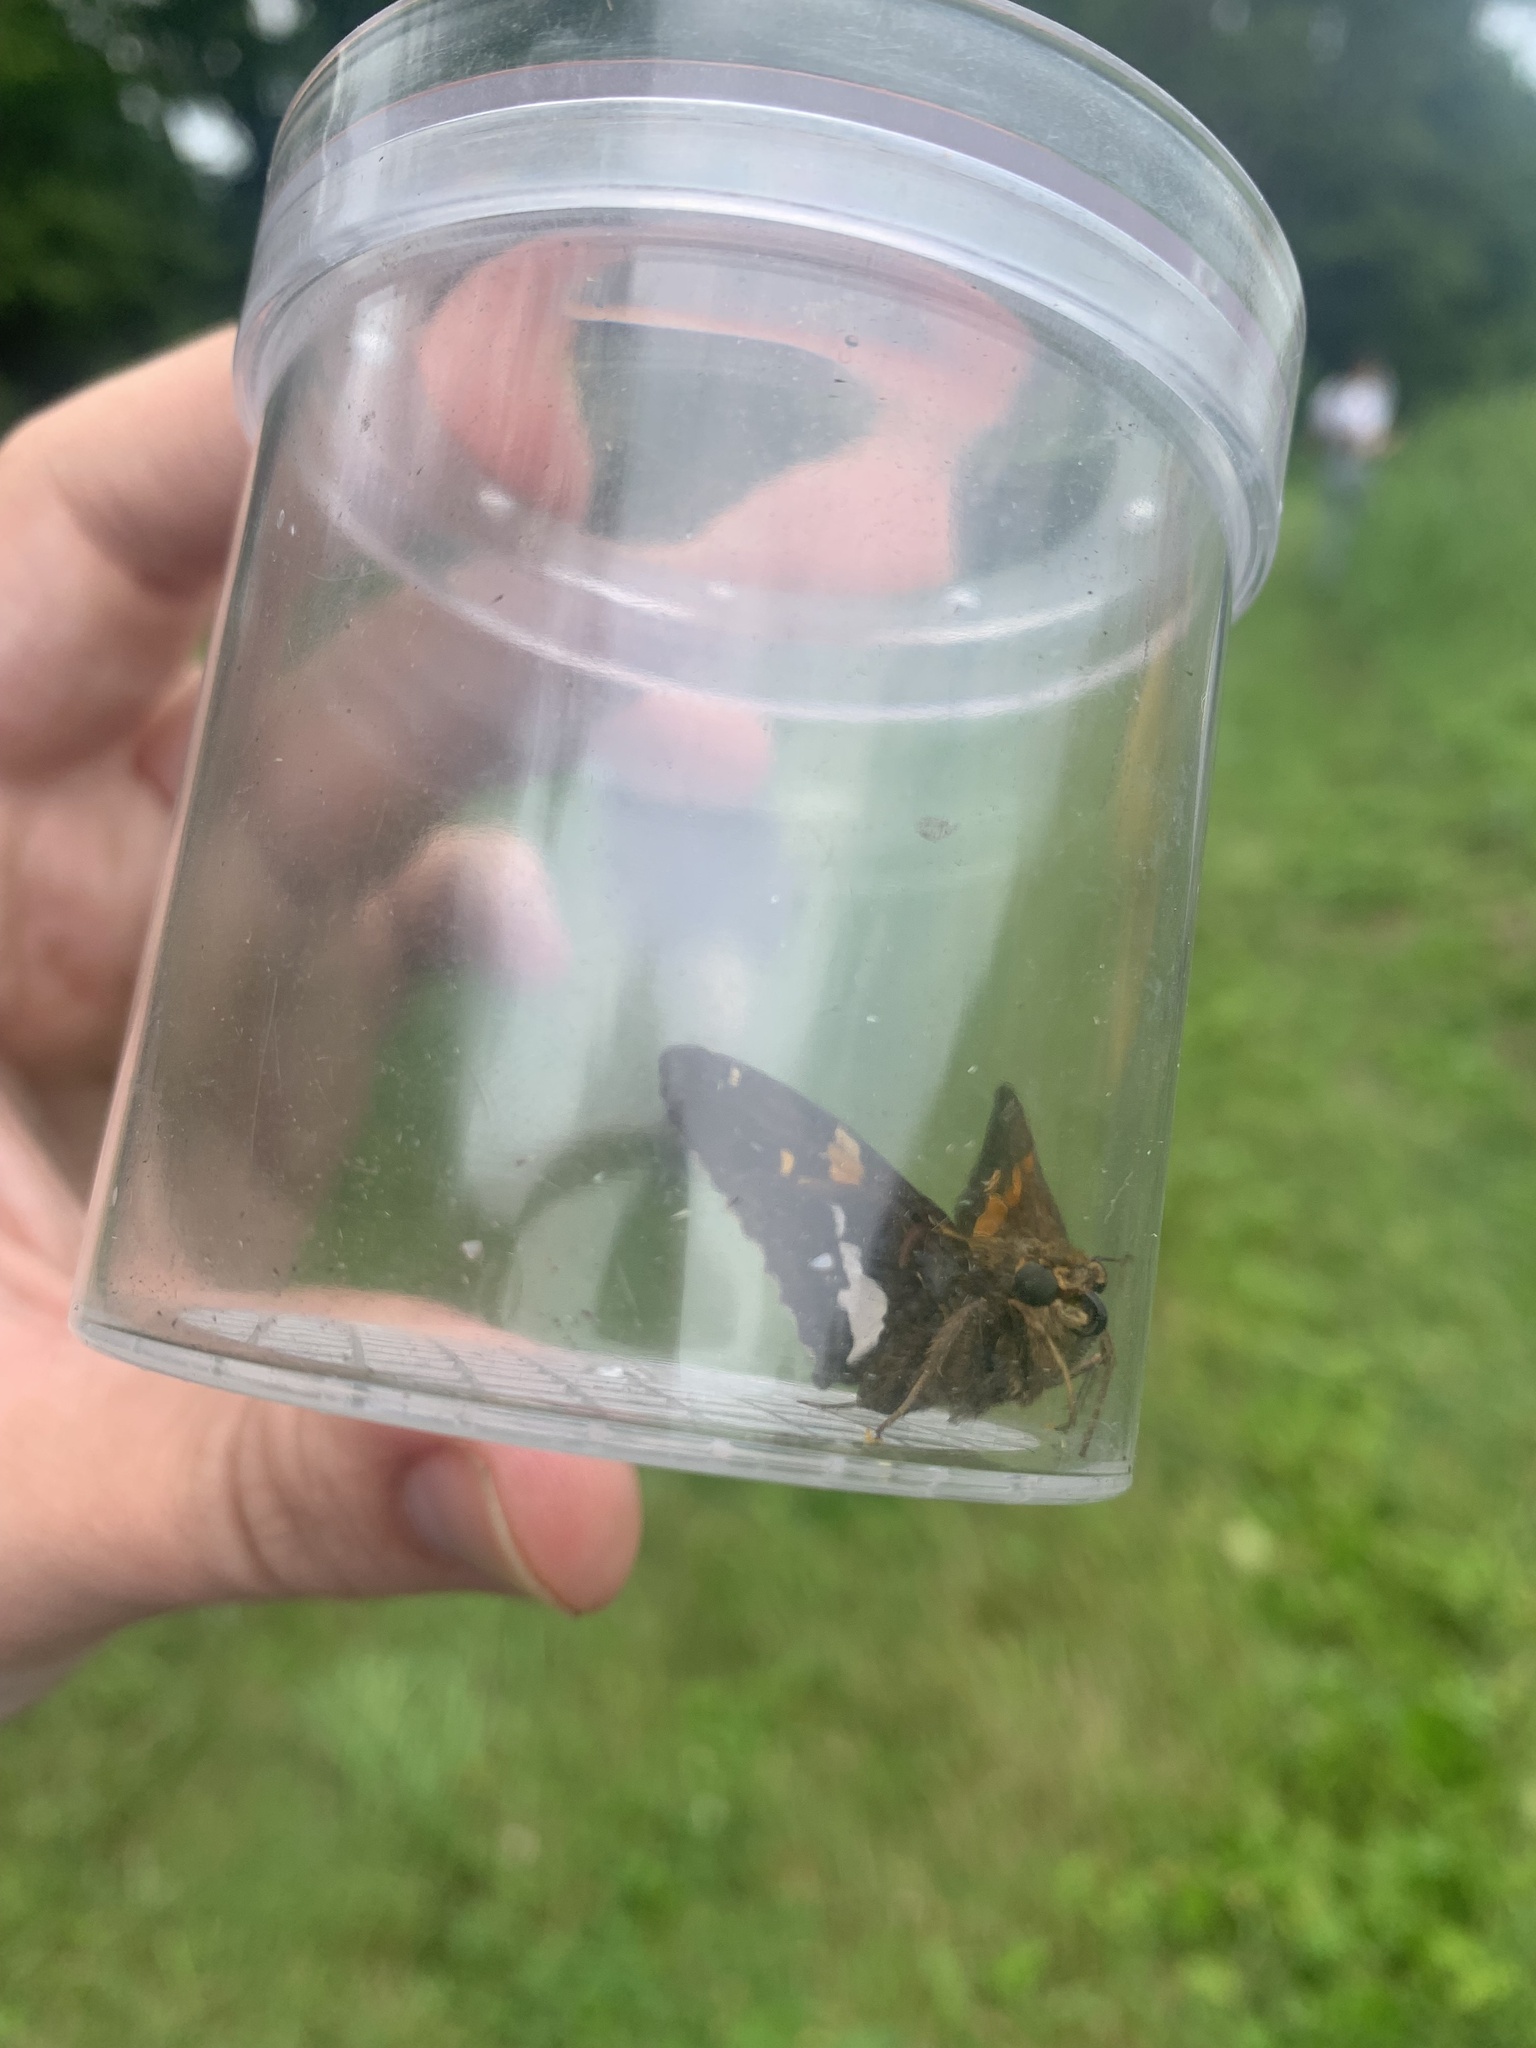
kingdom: Animalia
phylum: Arthropoda
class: Insecta
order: Lepidoptera
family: Hesperiidae
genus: Epargyreus
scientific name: Epargyreus clarus
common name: Silver-spotted skipper
